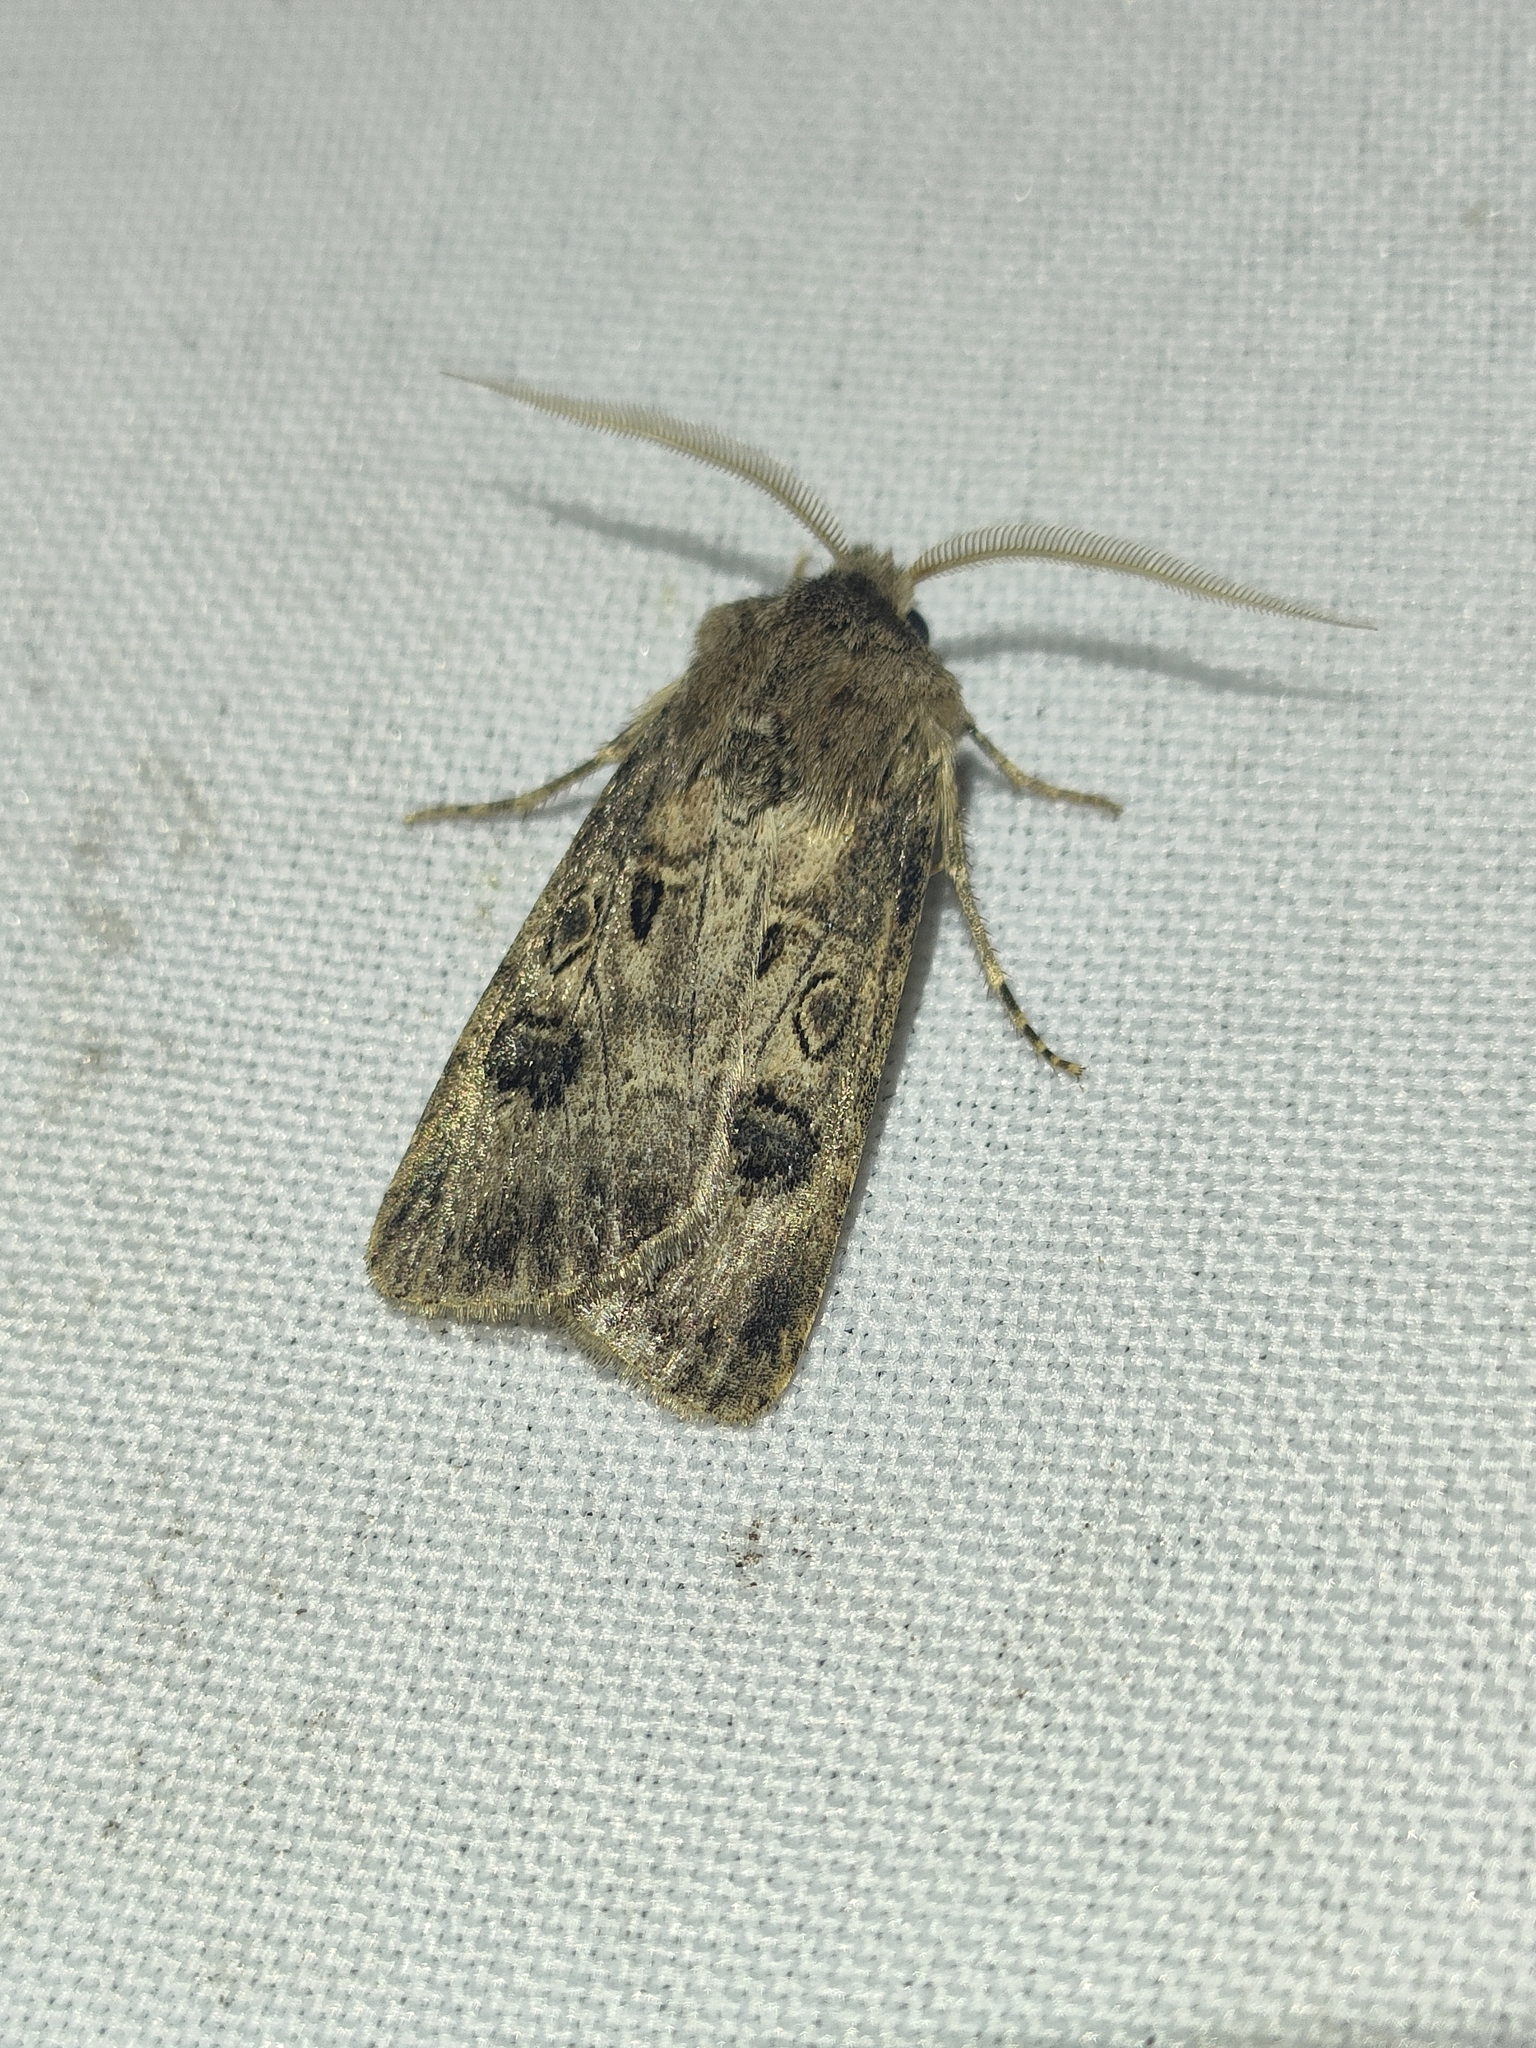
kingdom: Animalia
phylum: Arthropoda
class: Insecta
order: Lepidoptera
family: Noctuidae
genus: Agrotis
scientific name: Agrotis bigramma
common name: Great dart
